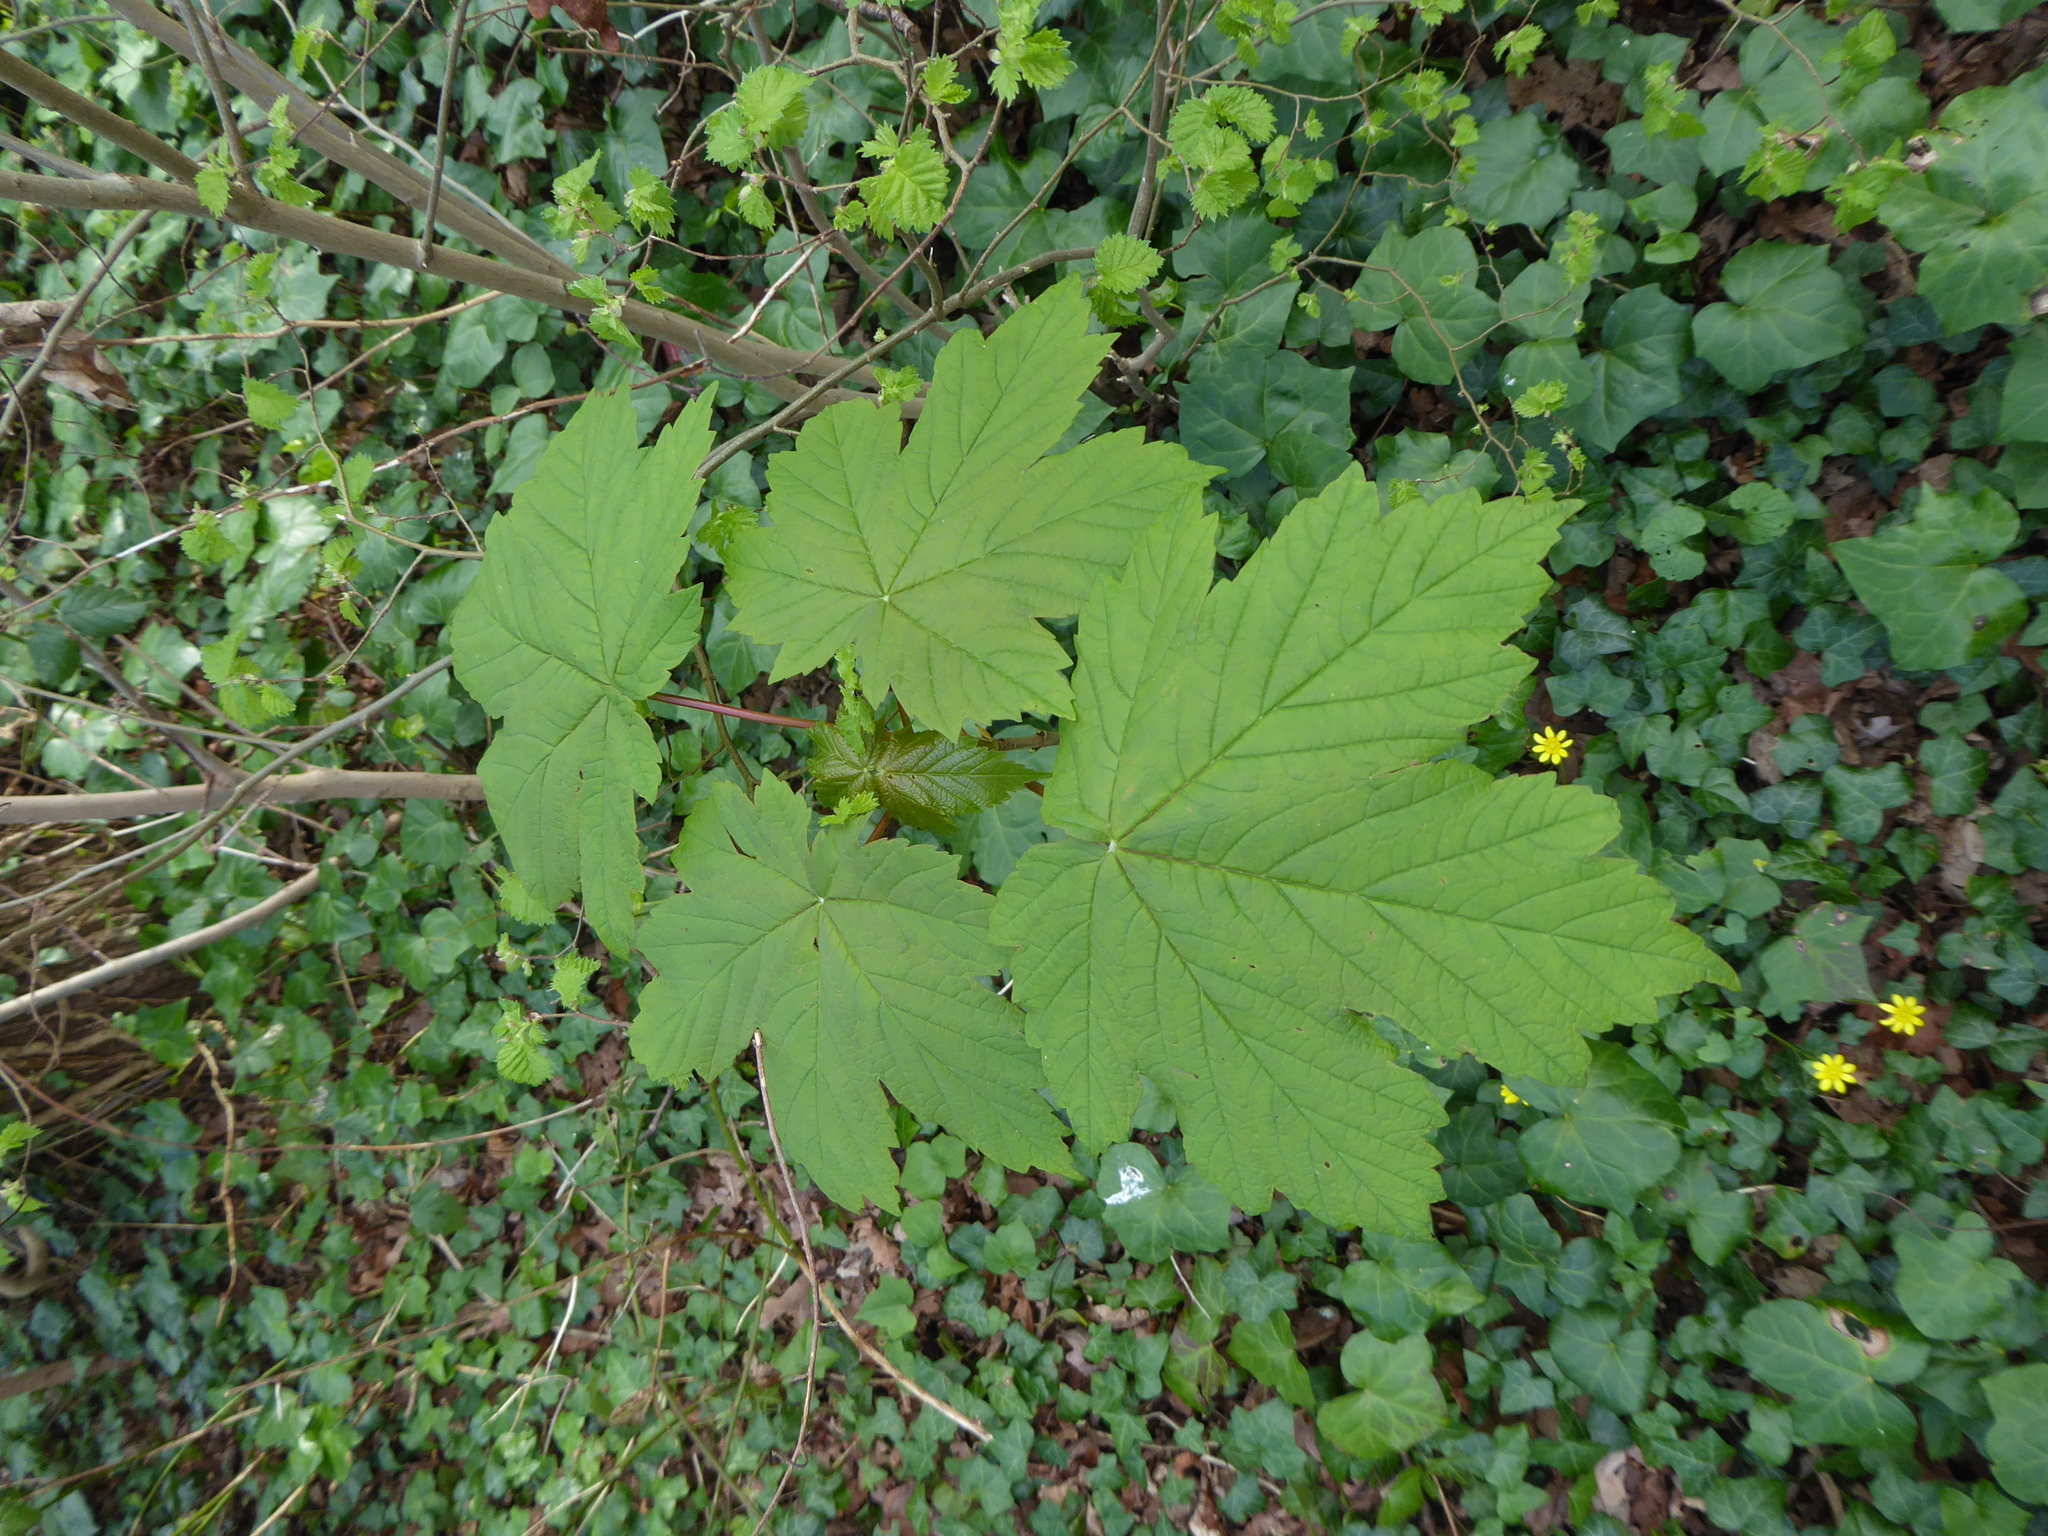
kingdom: Plantae
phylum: Tracheophyta
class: Magnoliopsida
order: Sapindales
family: Sapindaceae
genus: Acer
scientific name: Acer pseudoplatanus
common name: Sycamore
